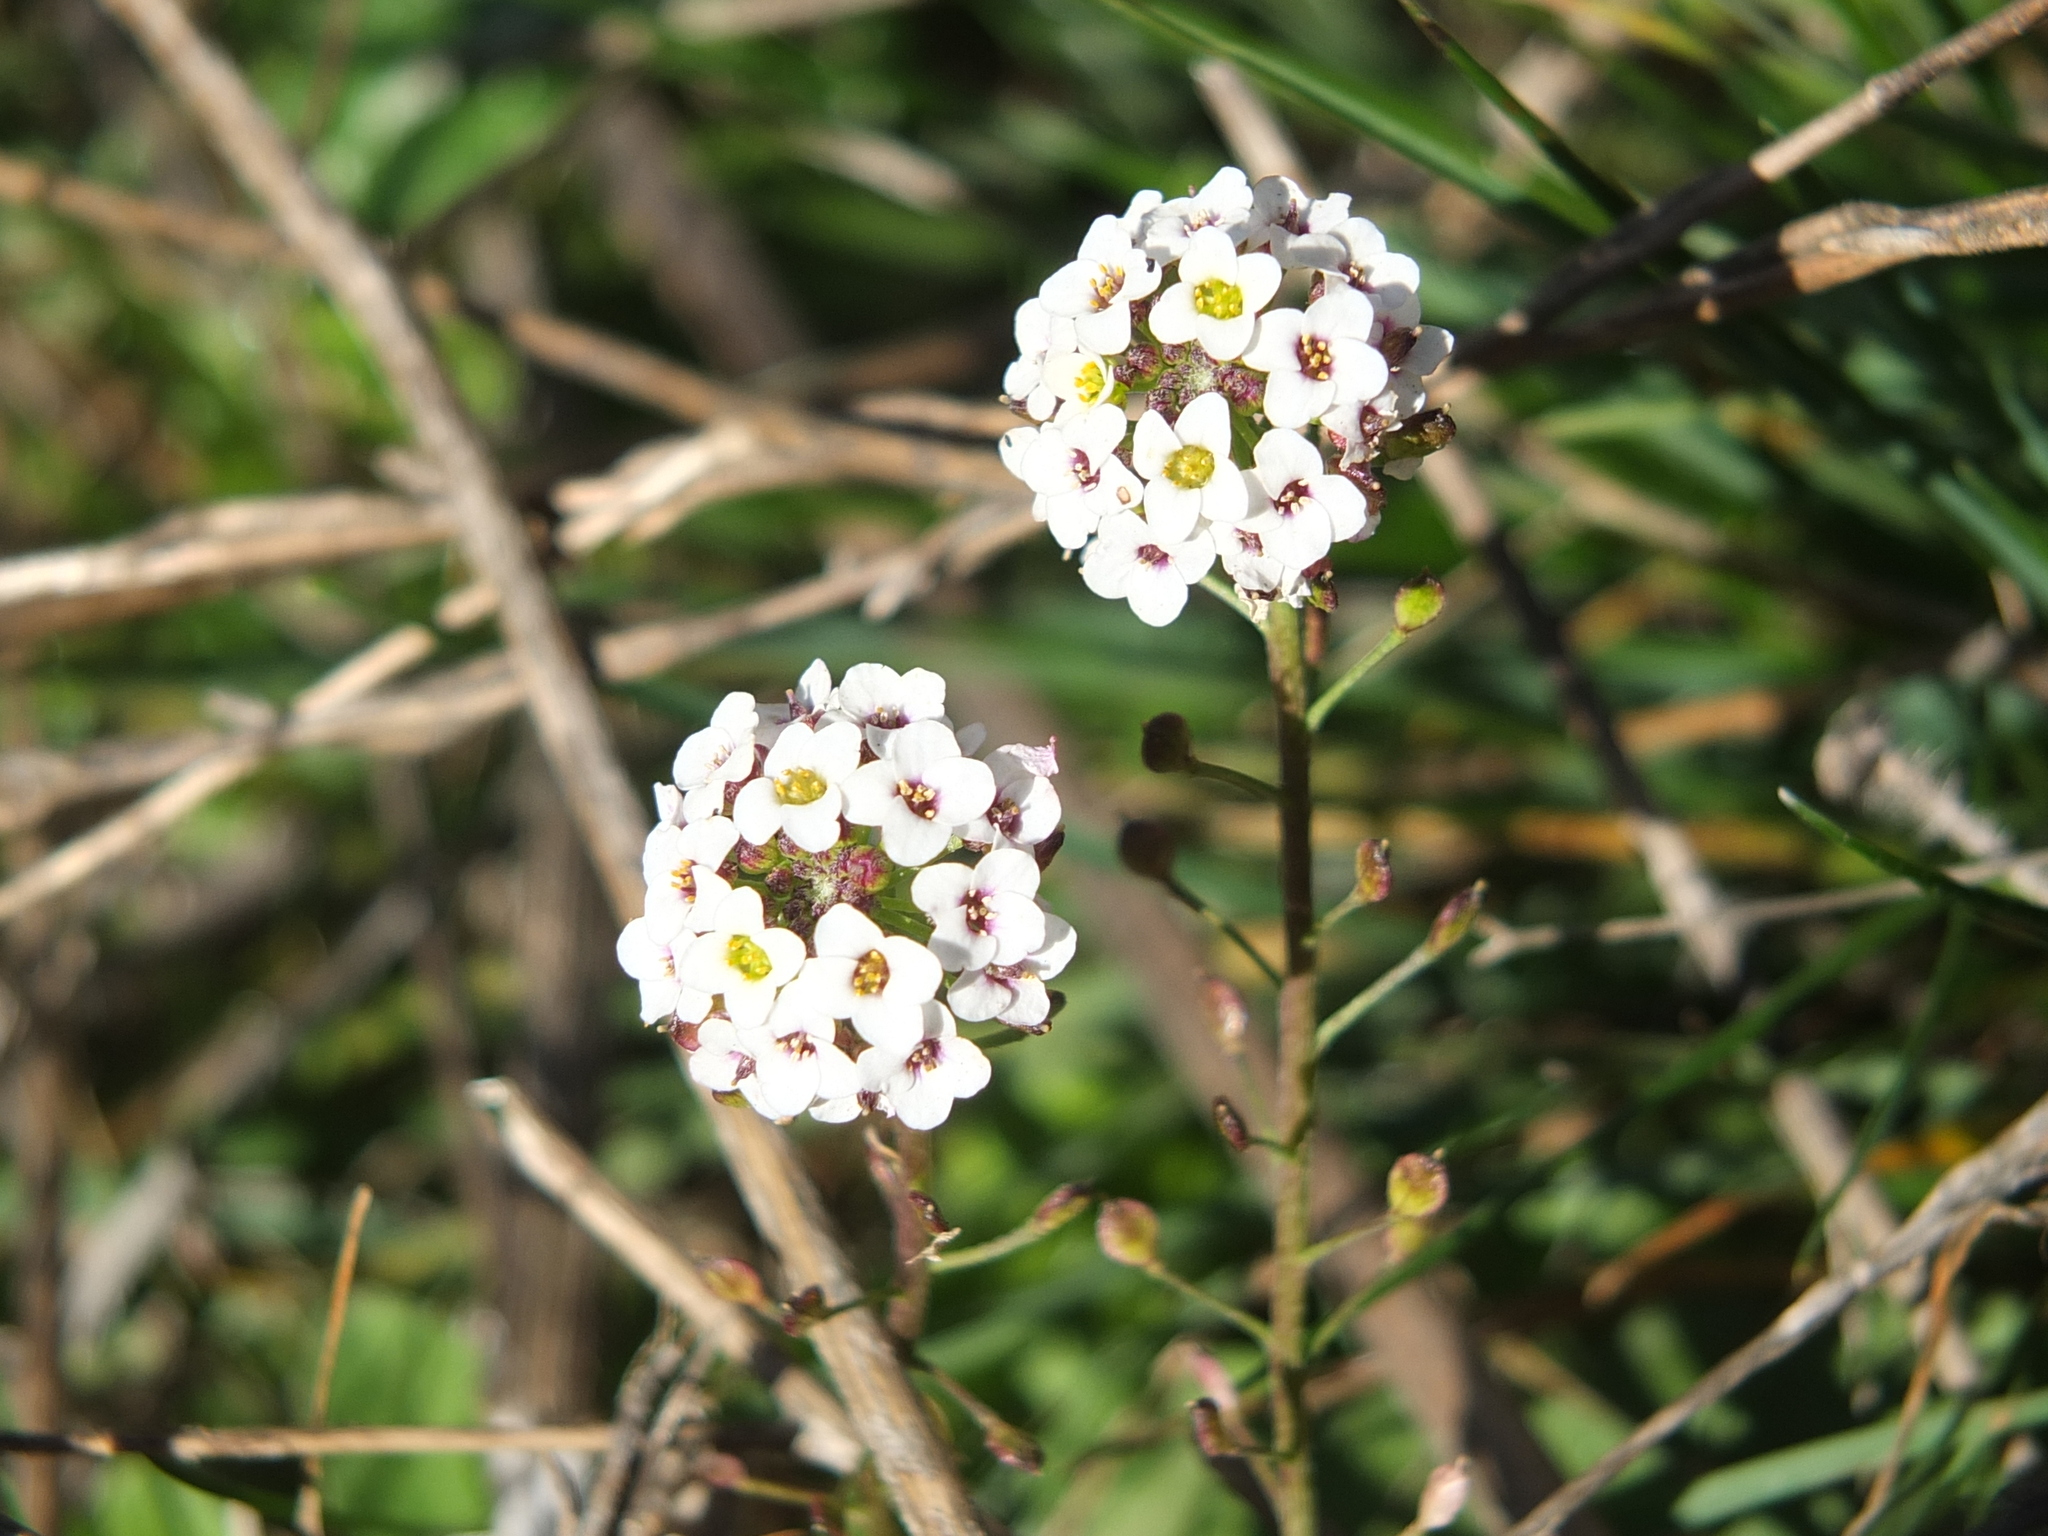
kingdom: Plantae
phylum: Tracheophyta
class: Magnoliopsida
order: Brassicales
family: Brassicaceae
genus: Lobularia
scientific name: Lobularia maritima
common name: Sweet alison
